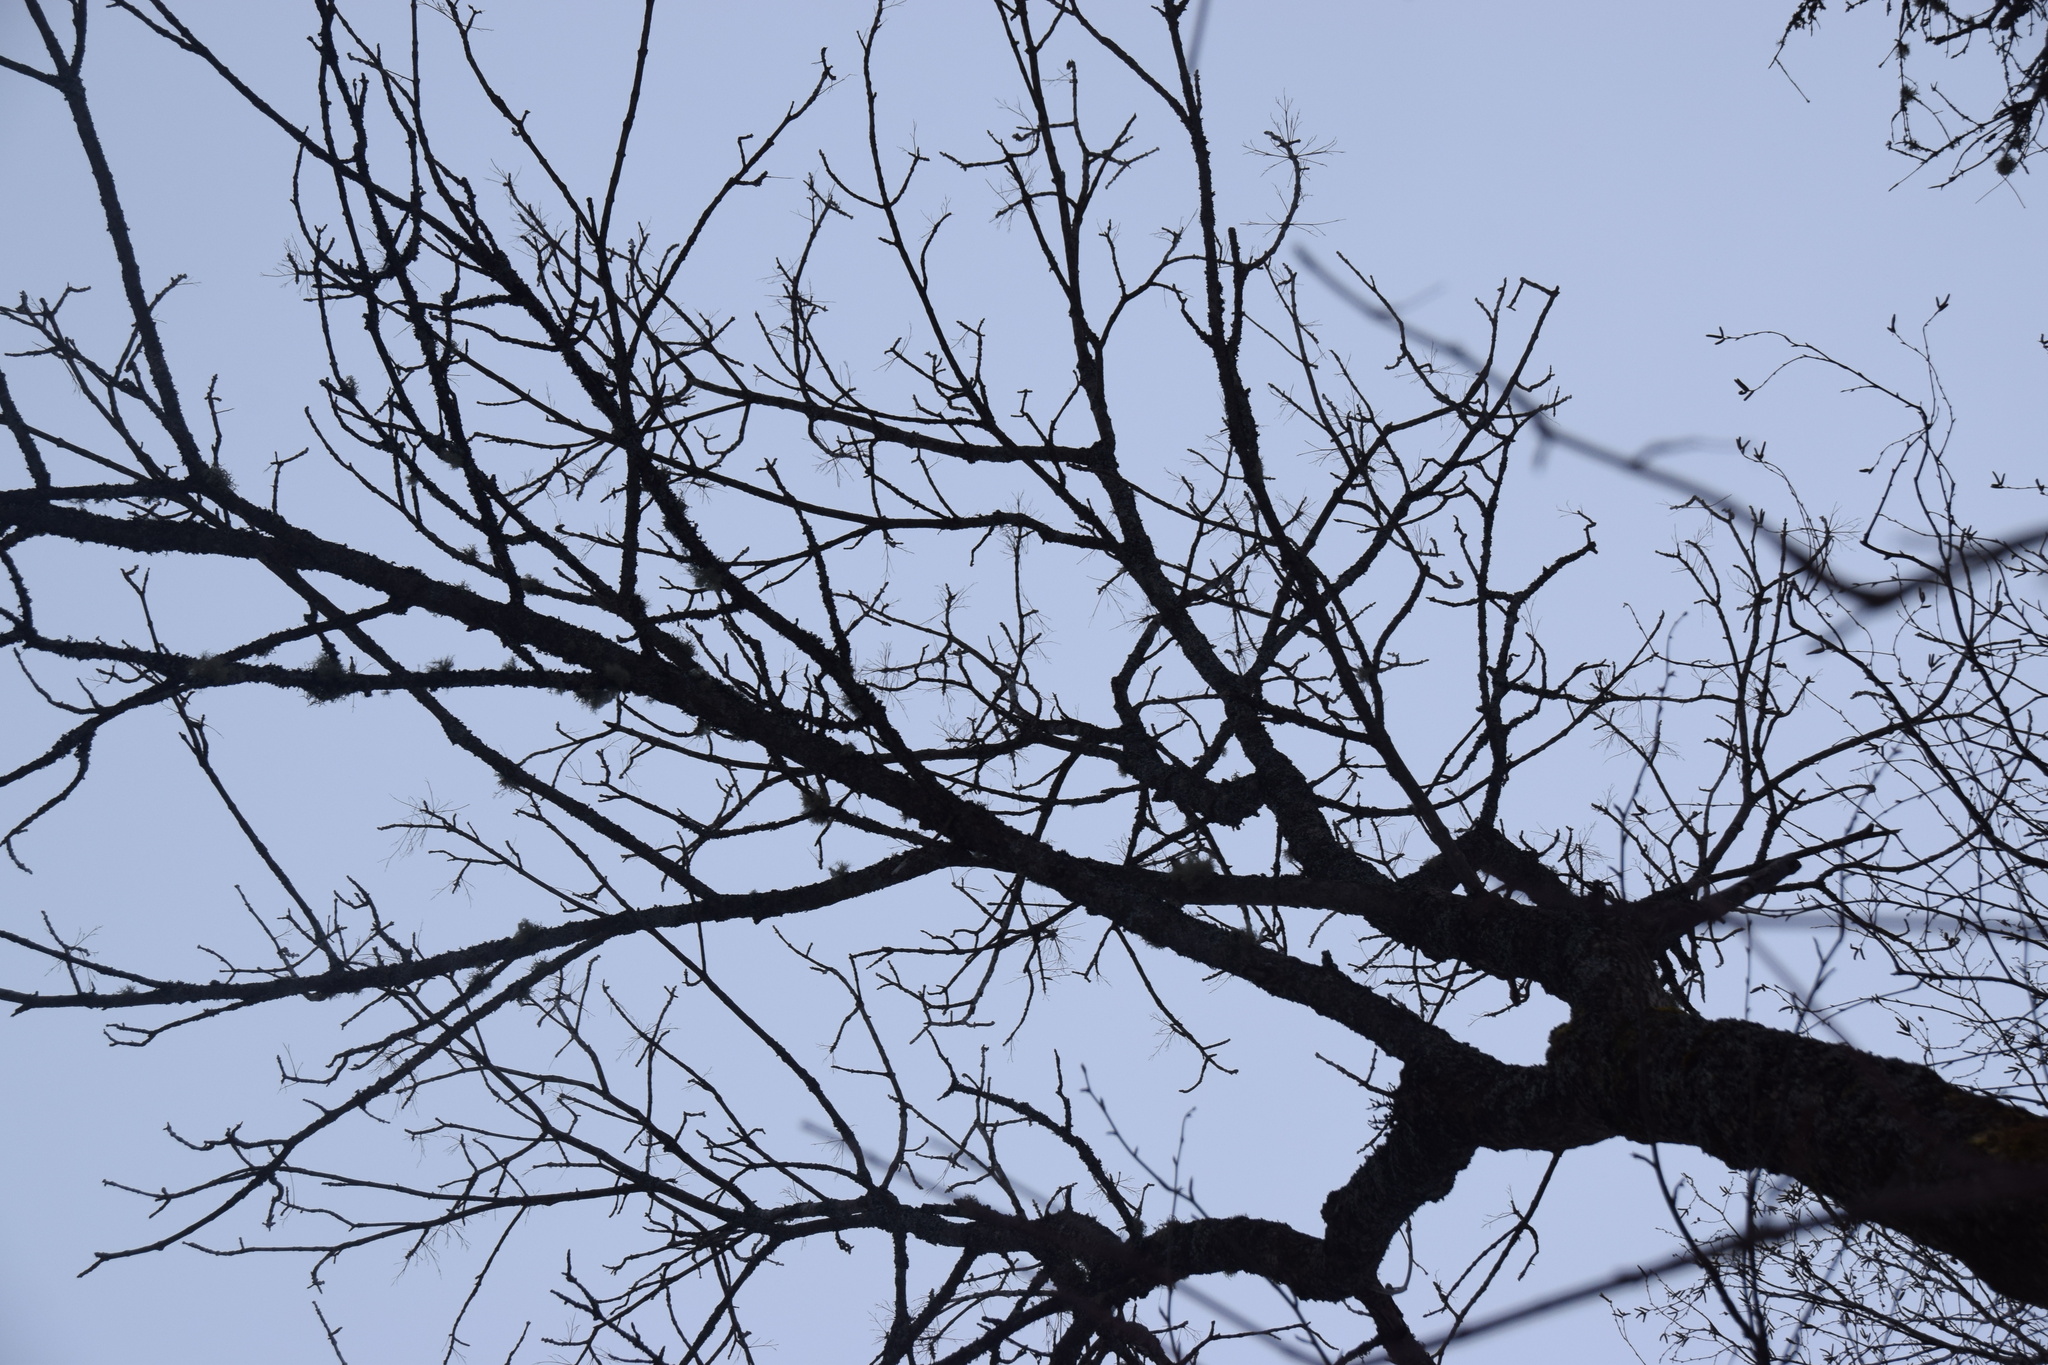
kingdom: Plantae
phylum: Tracheophyta
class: Magnoliopsida
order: Lamiales
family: Oleaceae
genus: Fraxinus
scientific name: Fraxinus nigra
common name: Black ash
